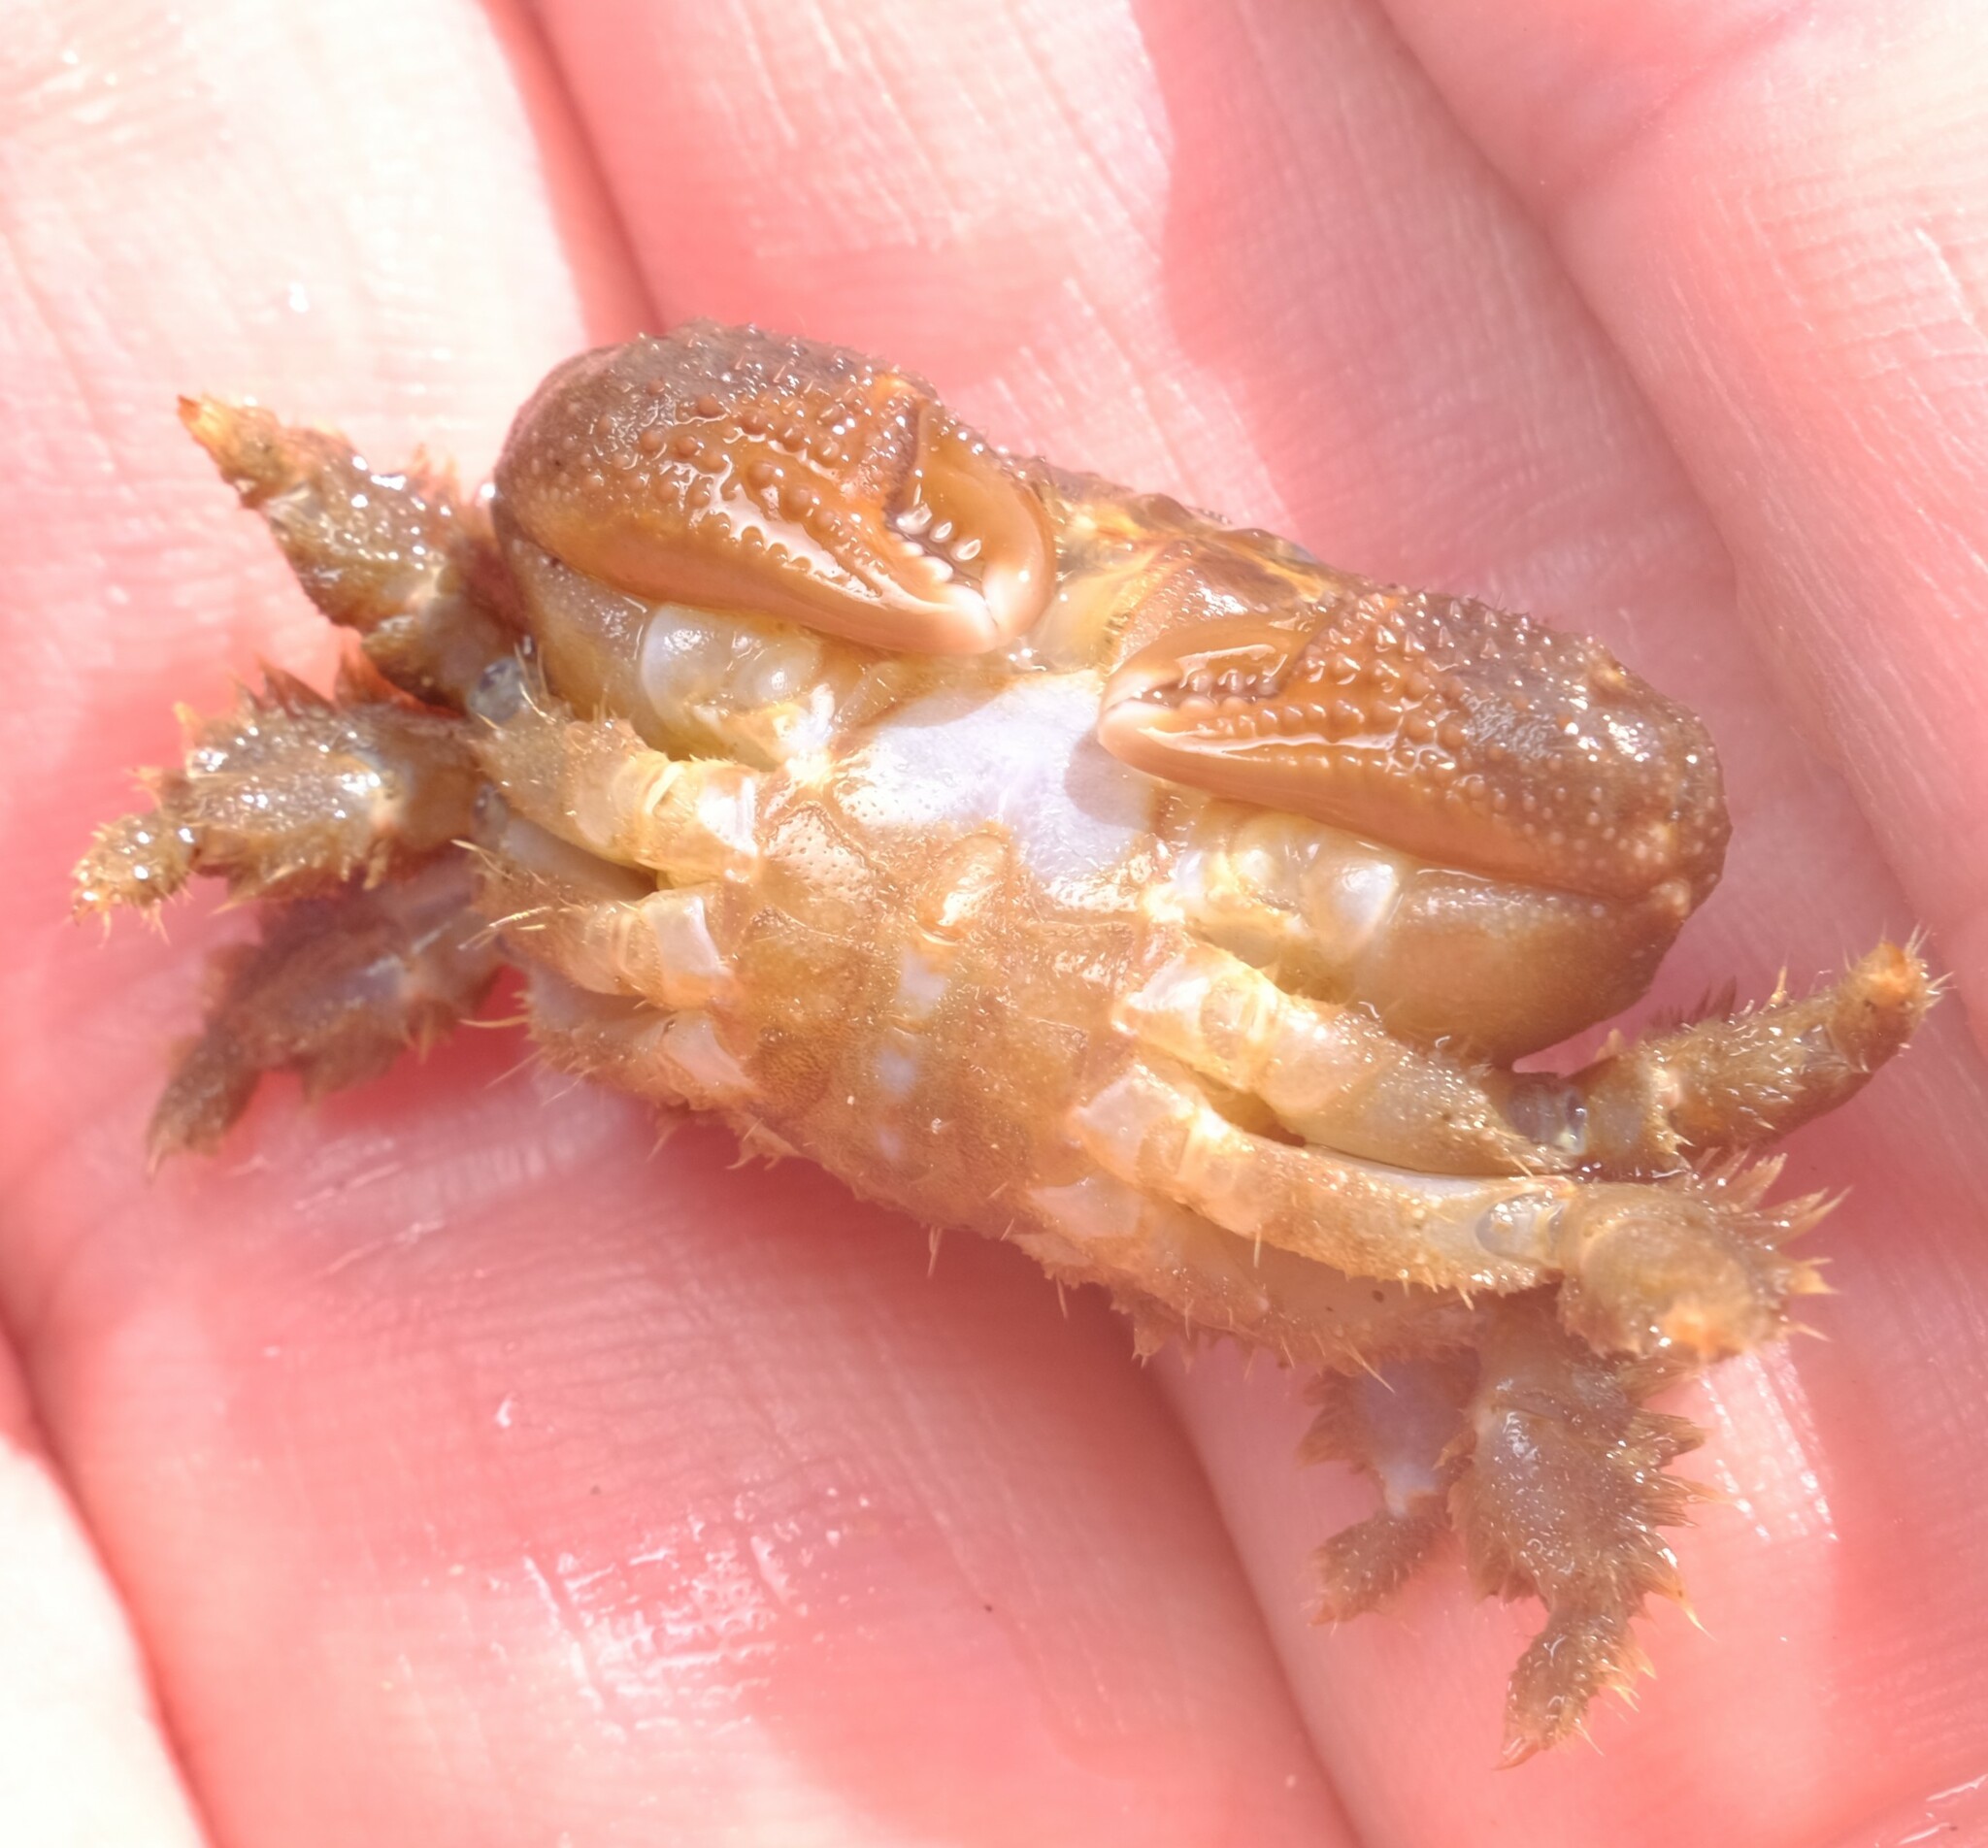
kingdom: Animalia
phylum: Arthropoda
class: Malacostraca
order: Decapoda
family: Xanthidae
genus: Pilodius
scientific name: Pilodius areolatus
